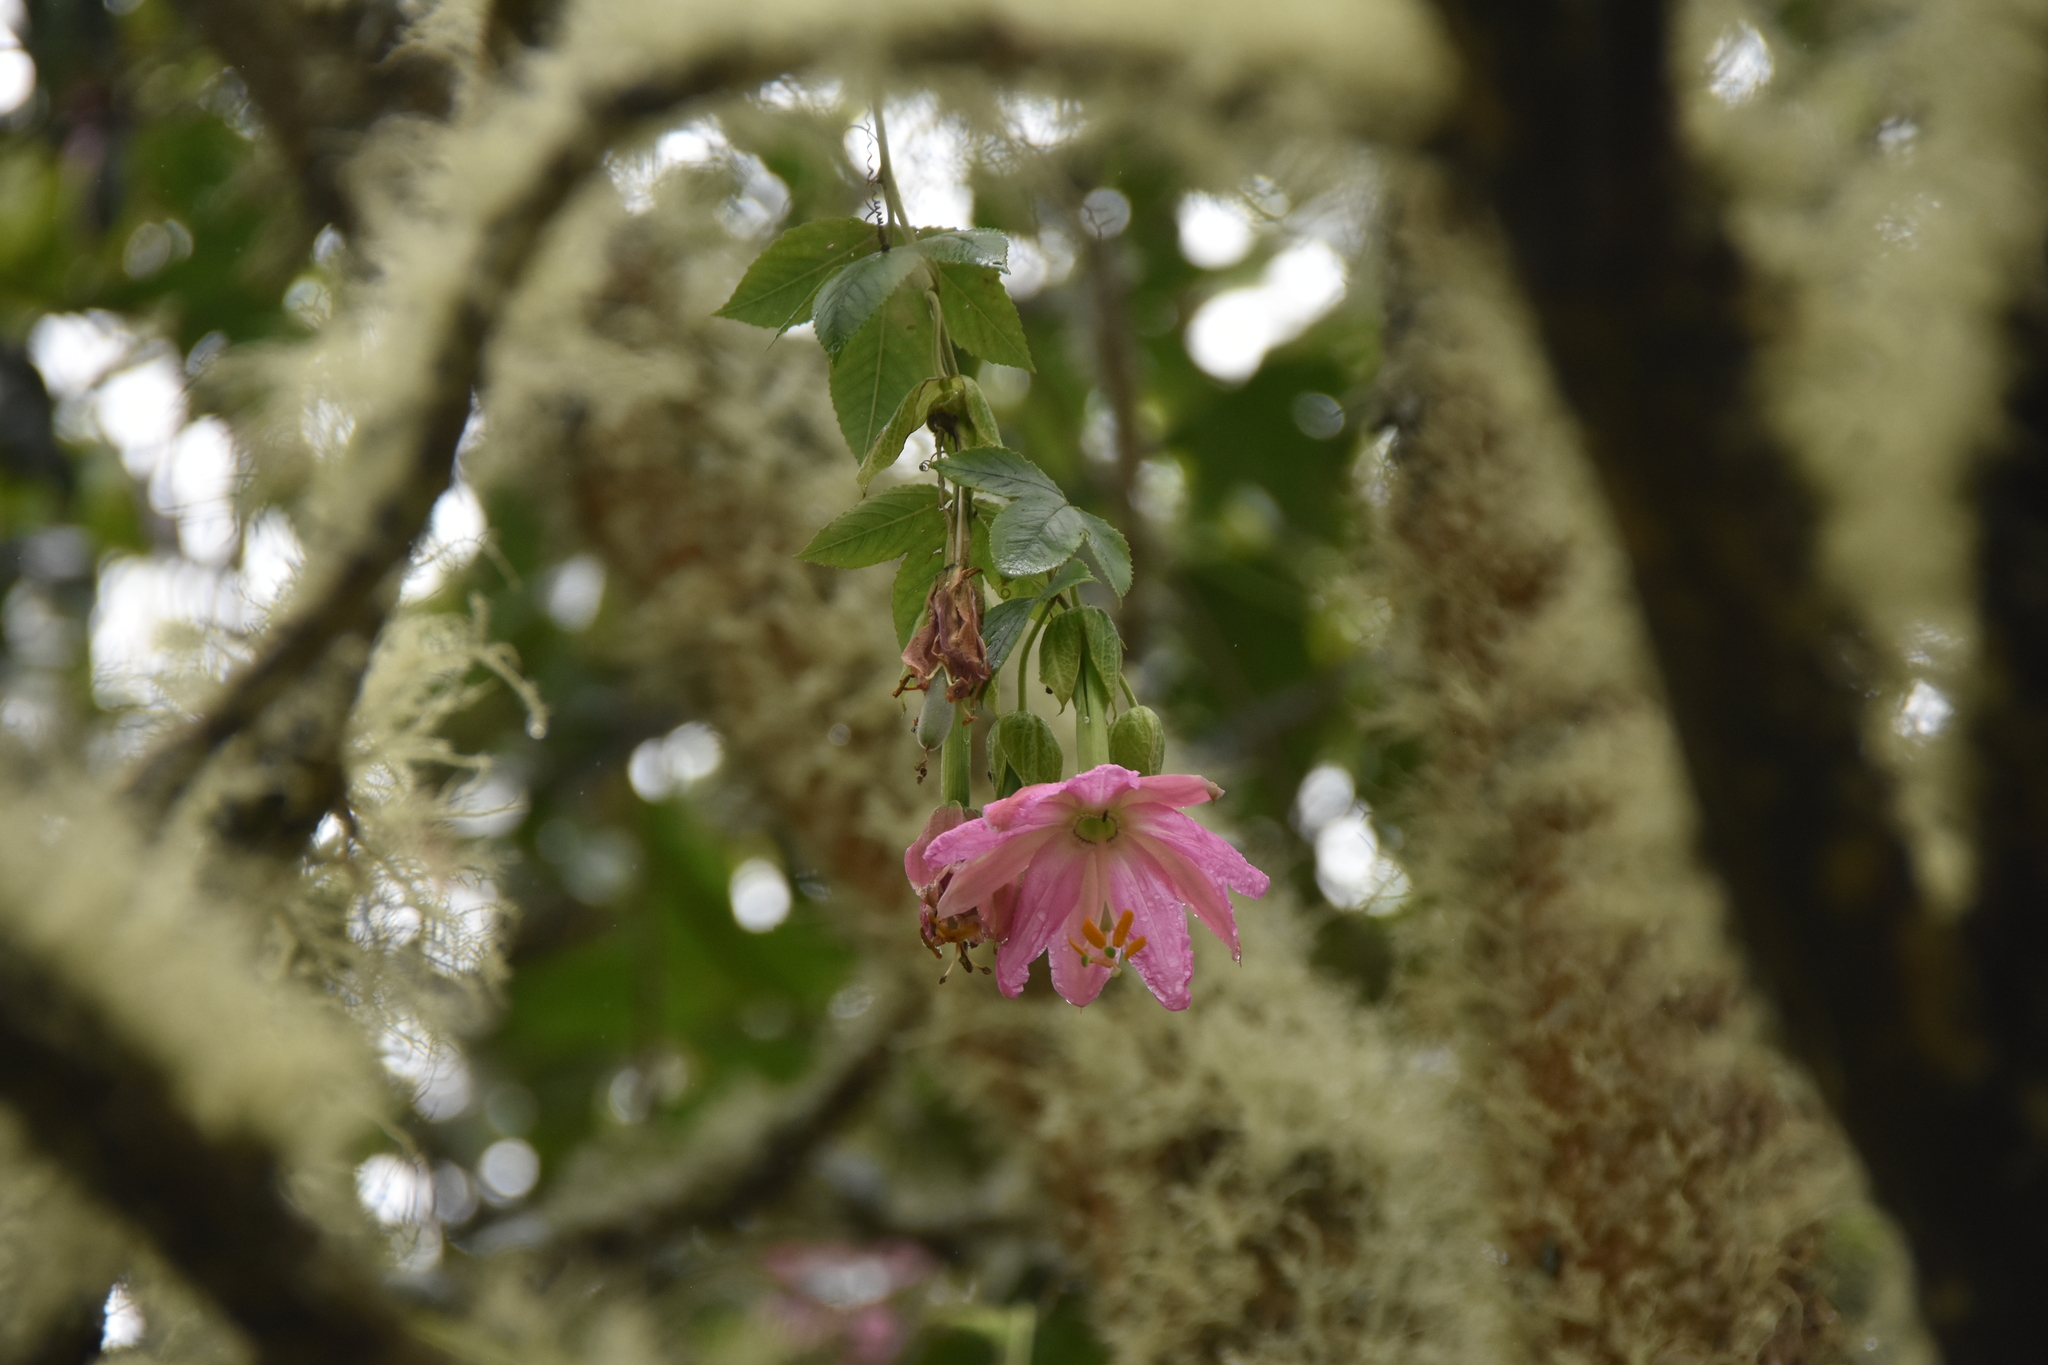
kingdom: Plantae
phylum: Tracheophyta
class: Magnoliopsida
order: Malpighiales
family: Passifloraceae
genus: Passiflora
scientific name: Passiflora tarminiana
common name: Banana poka
